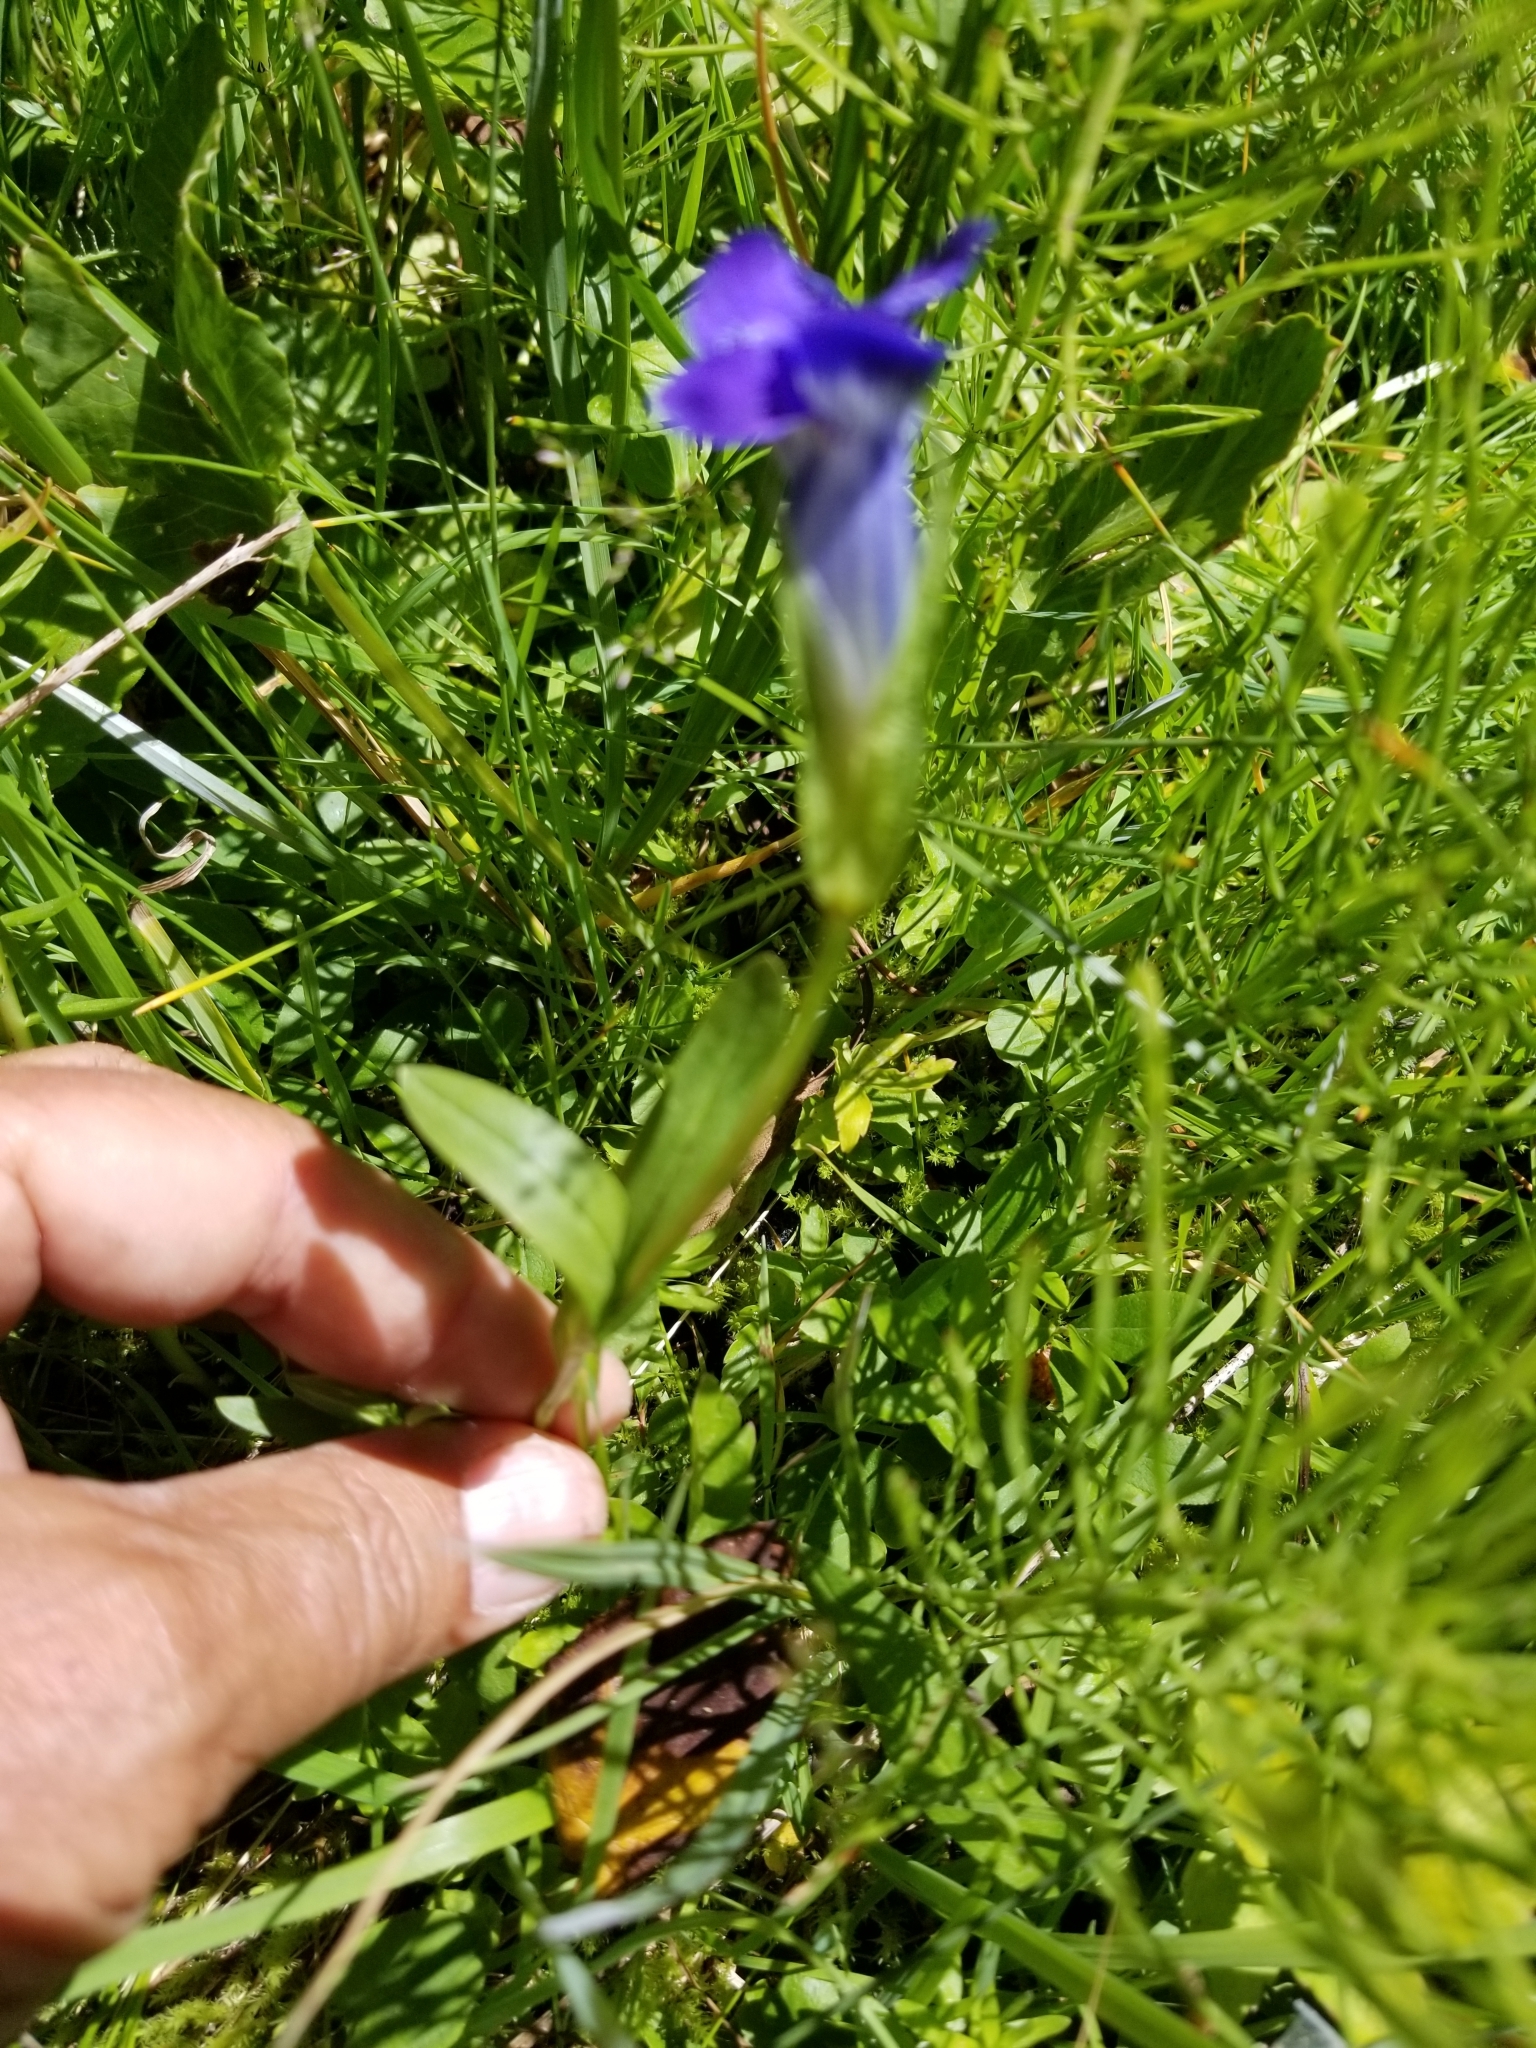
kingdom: Plantae
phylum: Tracheophyta
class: Magnoliopsida
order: Gentianales
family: Gentianaceae
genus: Gentianopsis
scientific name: Gentianopsis thermalis
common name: Rocky mountain fringed-gentian
